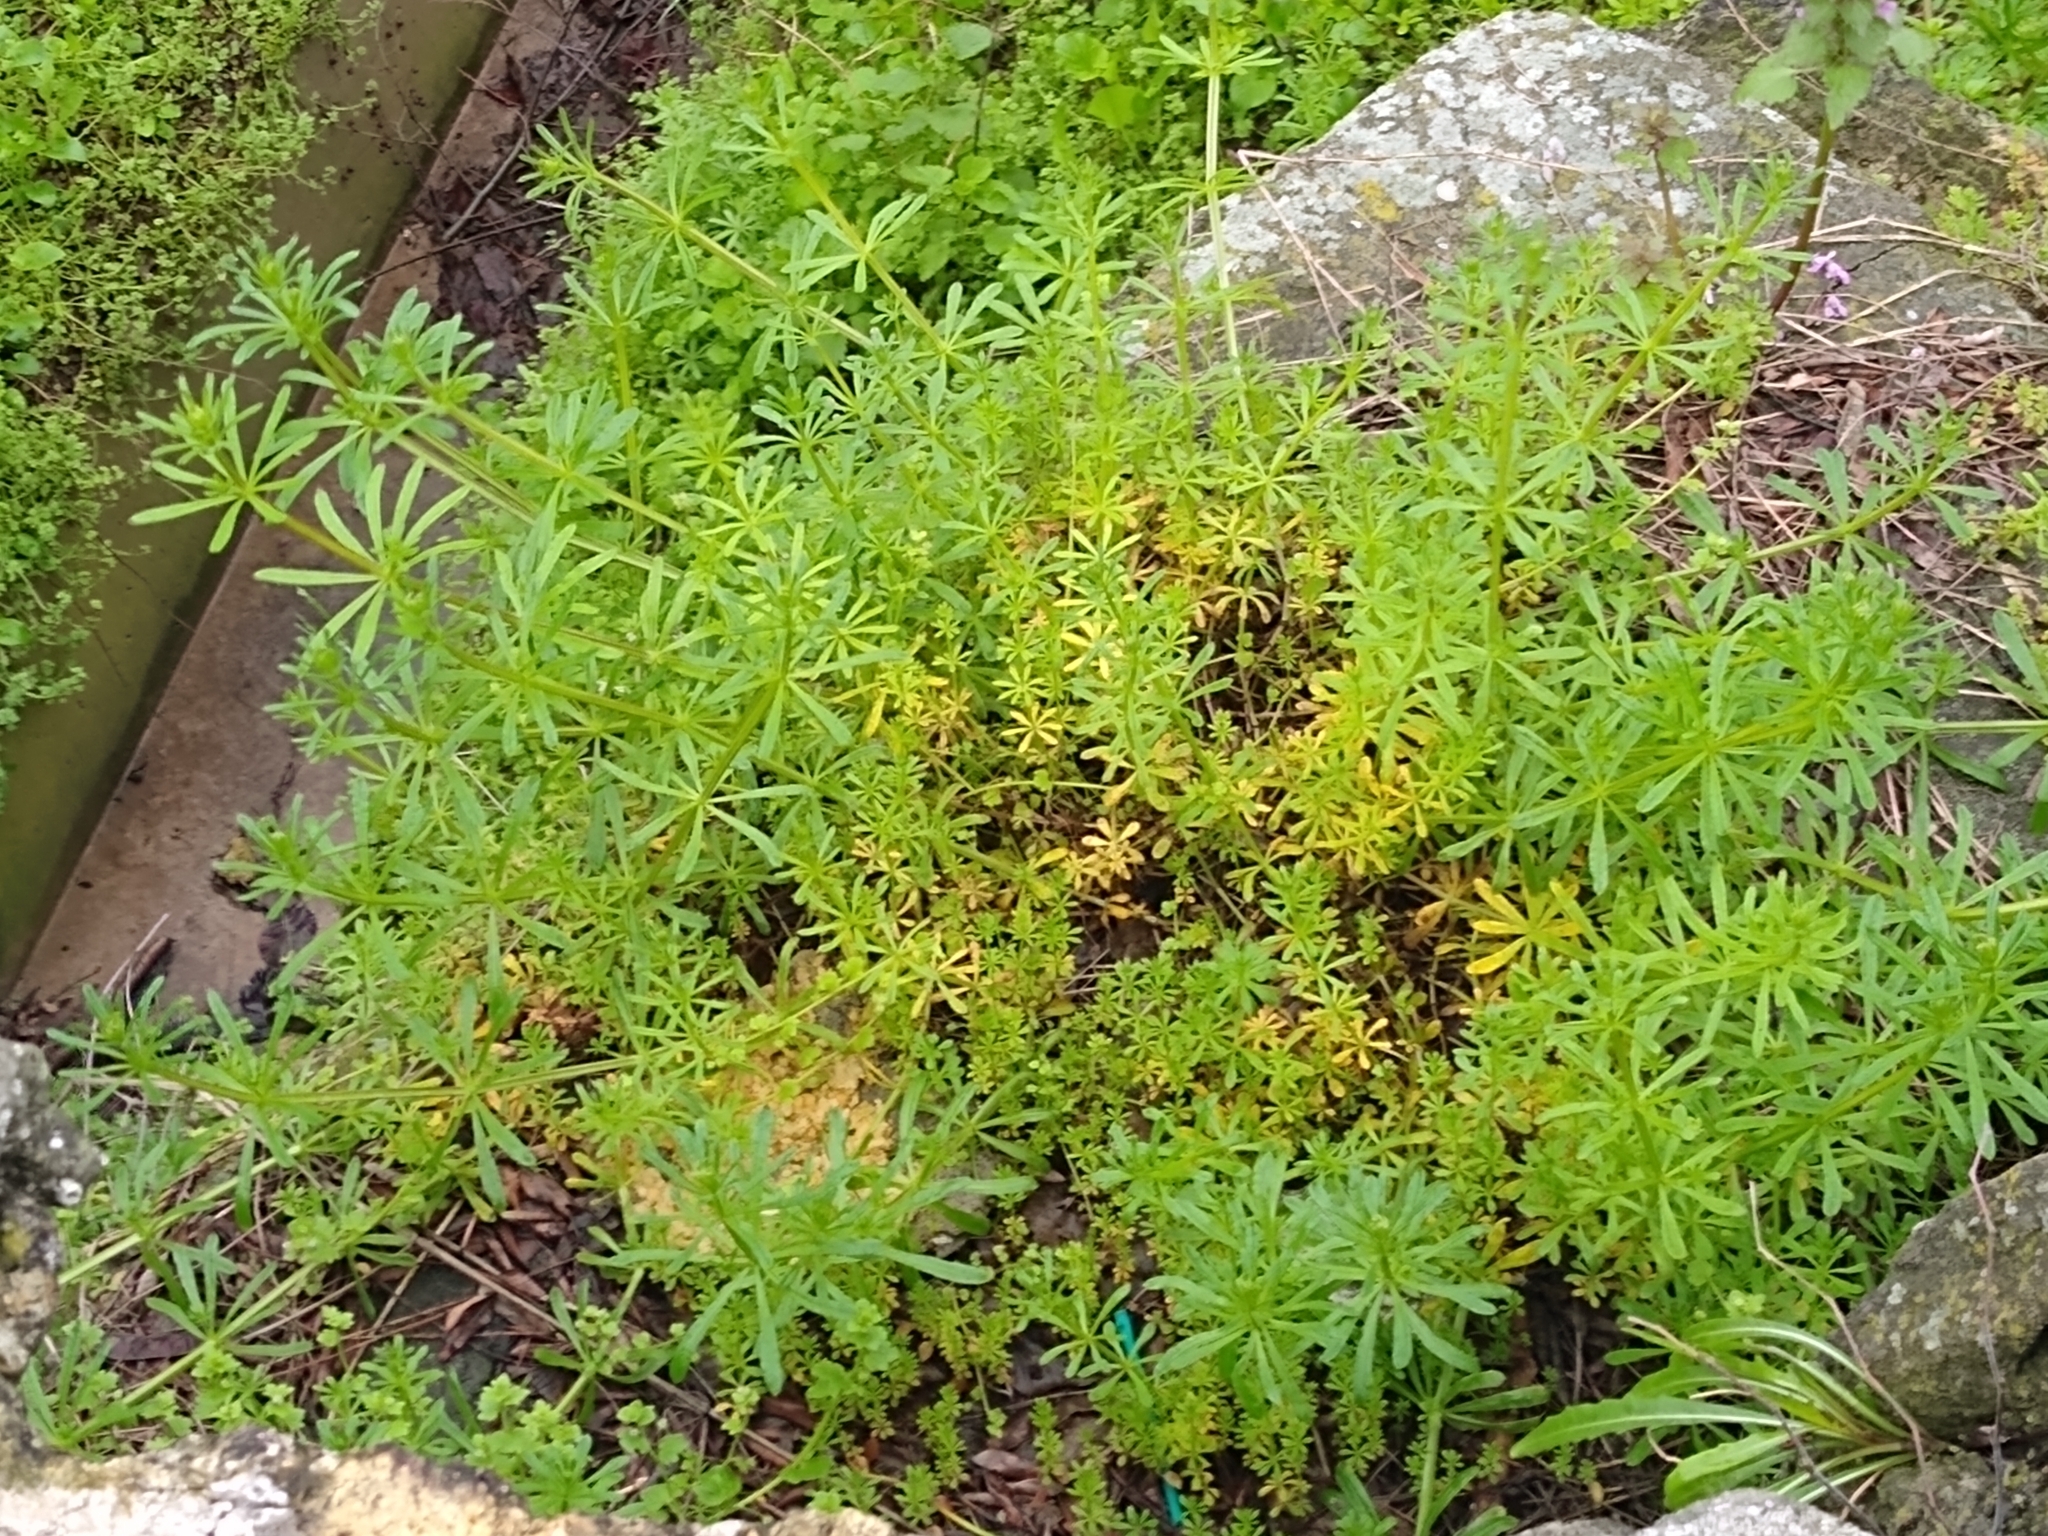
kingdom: Plantae
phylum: Tracheophyta
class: Magnoliopsida
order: Gentianales
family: Rubiaceae
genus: Galium
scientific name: Galium aparine
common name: Cleavers
